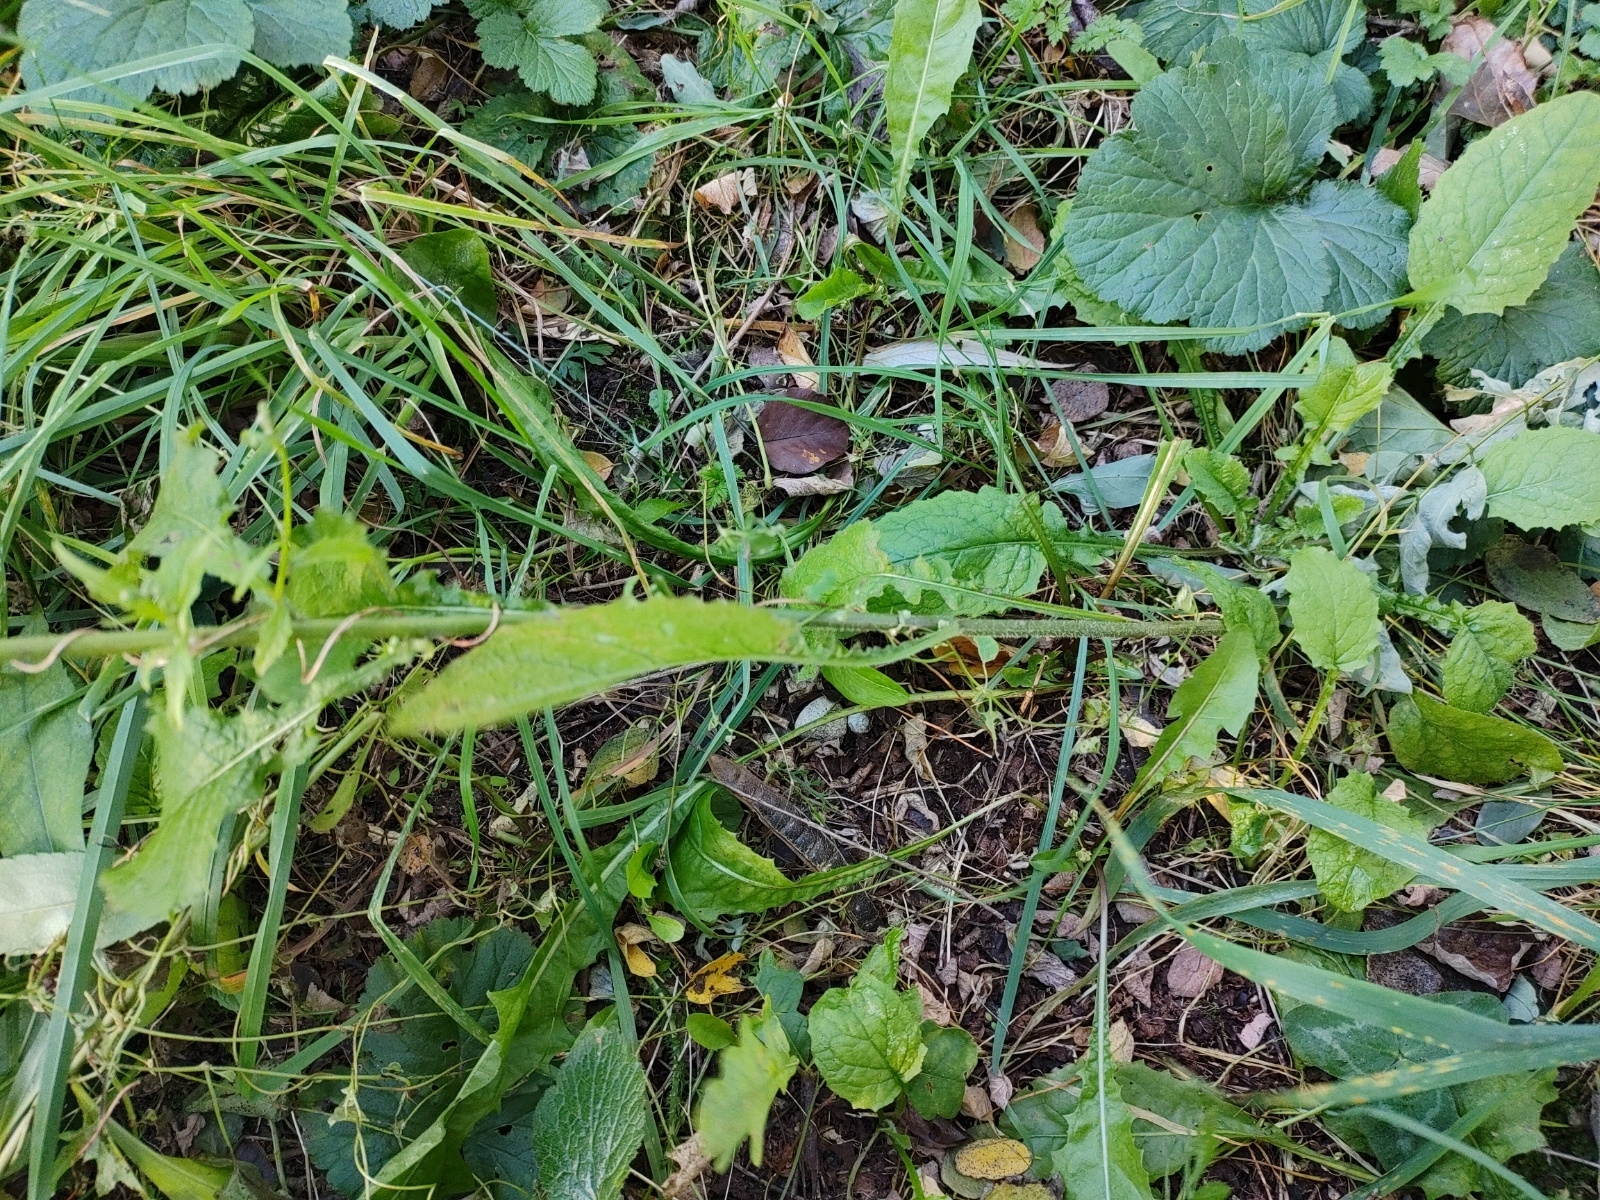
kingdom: Plantae
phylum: Tracheophyta
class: Magnoliopsida
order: Asterales
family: Asteraceae
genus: Lapsana
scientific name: Lapsana communis
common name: Nipplewort
